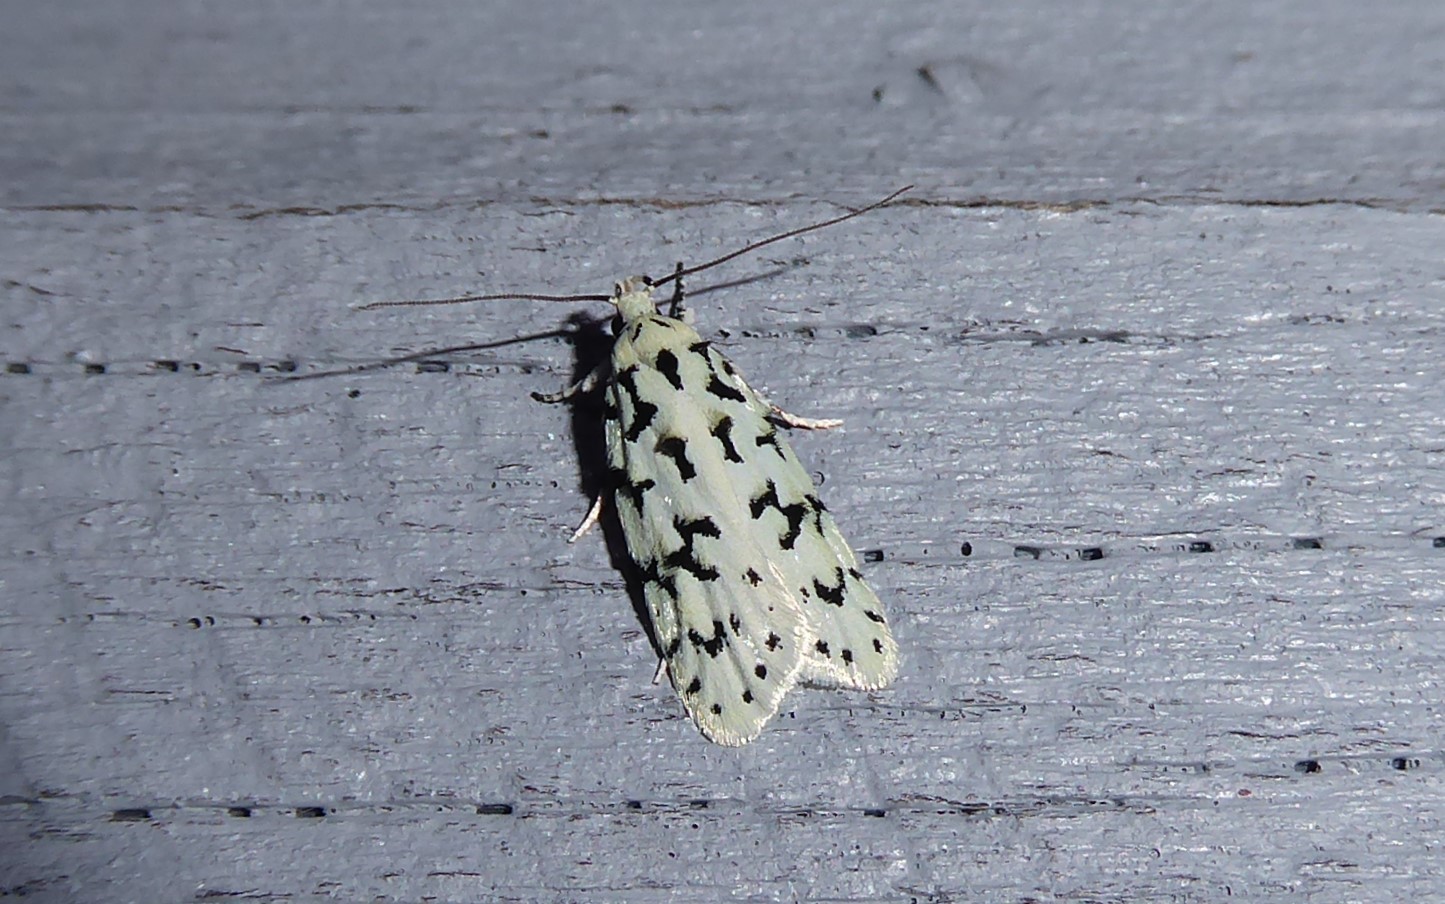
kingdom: Animalia
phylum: Arthropoda
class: Insecta
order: Lepidoptera
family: Oecophoridae
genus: Izatha
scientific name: Izatha huttoni
